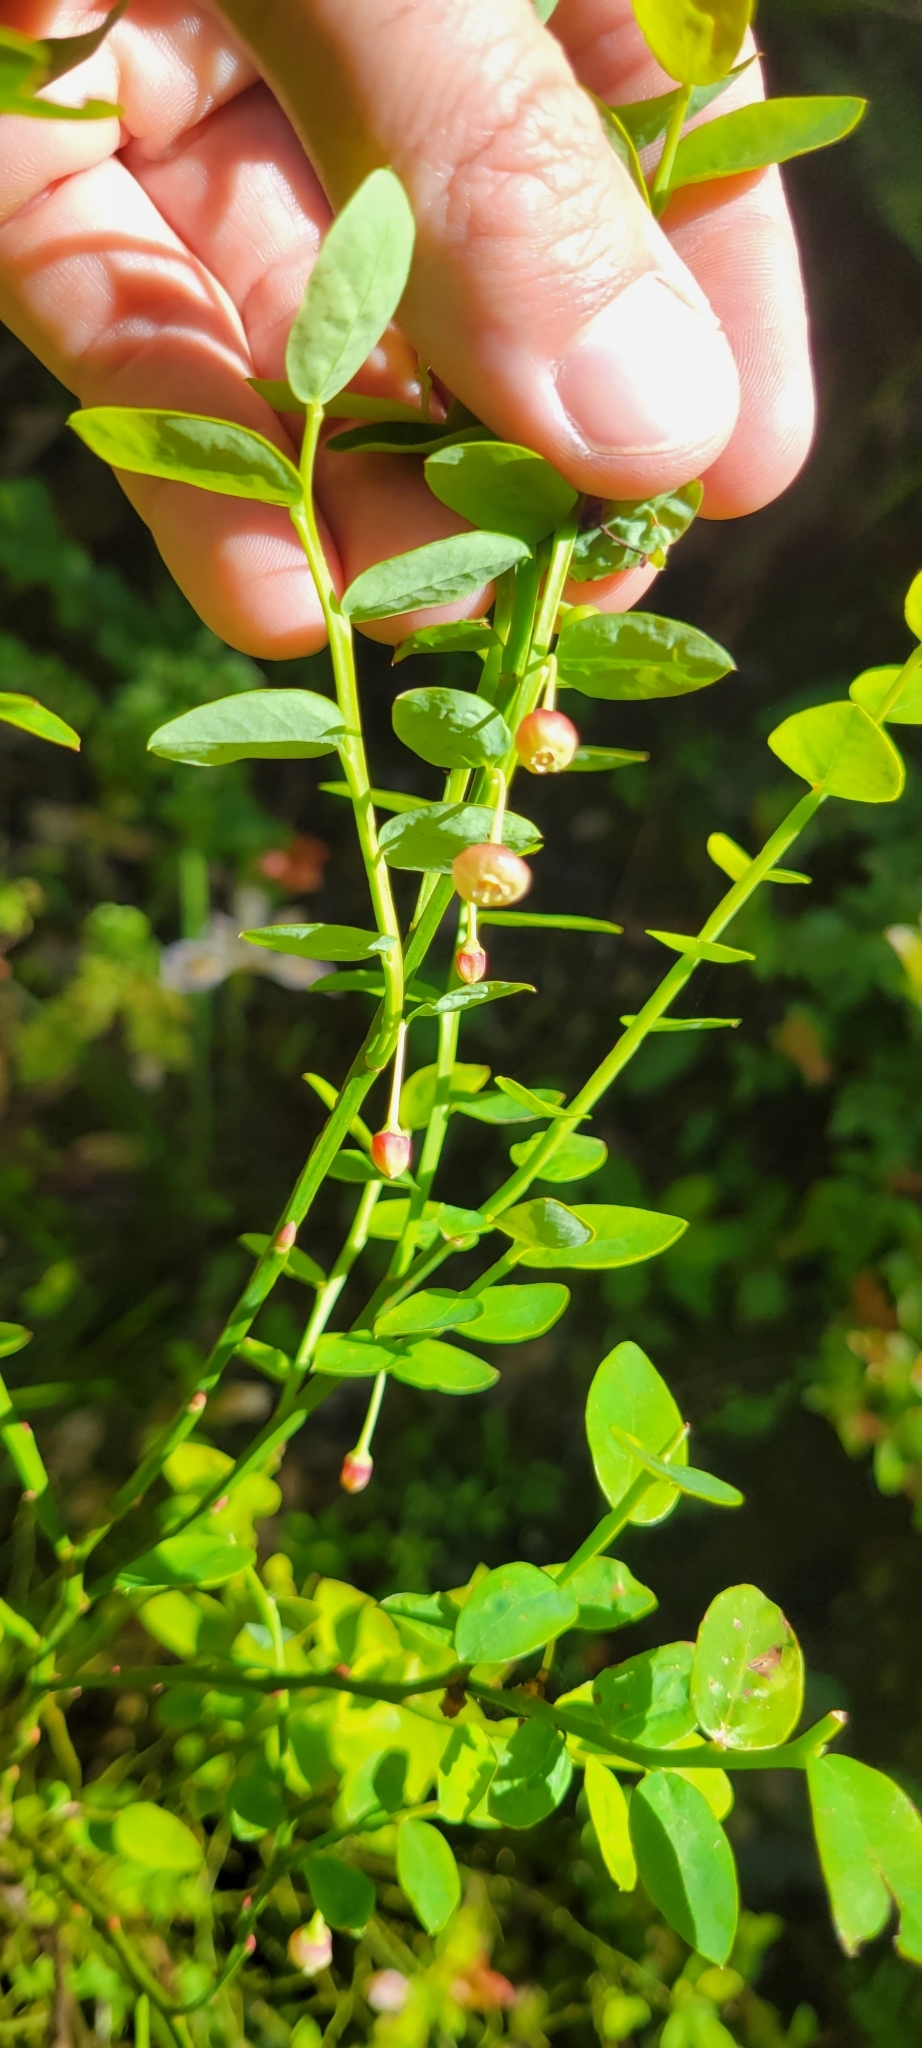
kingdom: Plantae
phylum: Tracheophyta
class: Magnoliopsida
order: Ericales
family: Ericaceae
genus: Vaccinium
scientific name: Vaccinium parvifolium
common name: Red-huckleberry
